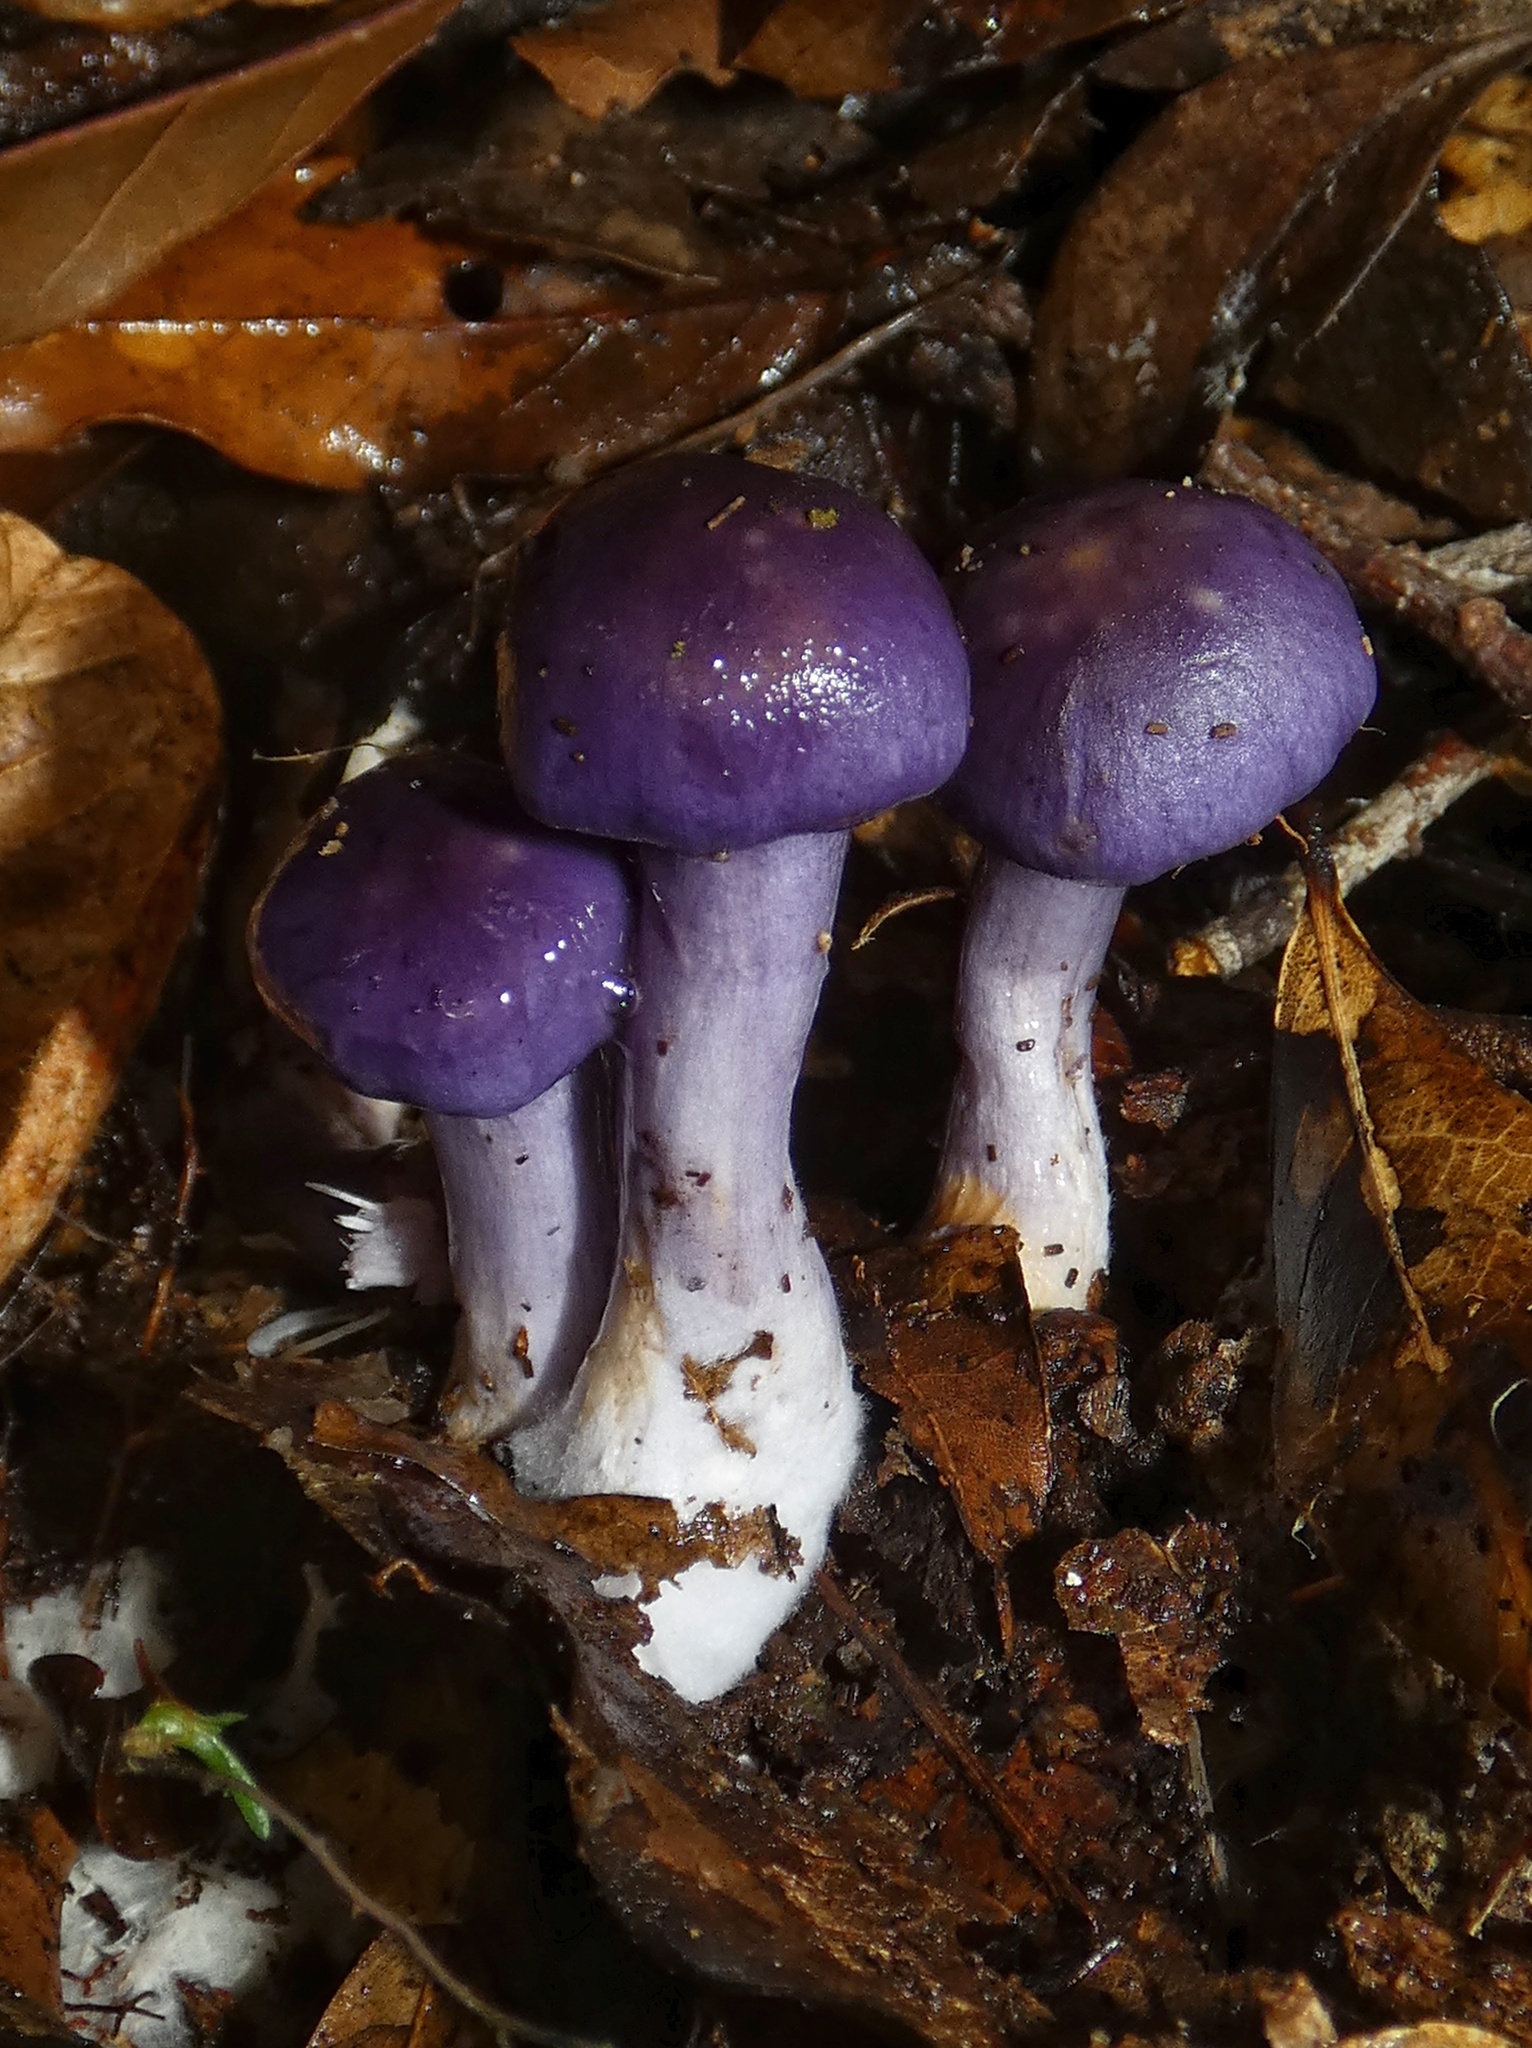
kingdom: Fungi
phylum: Basidiomycota
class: Agaricomycetes
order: Agaricales
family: Cortinariaceae
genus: Cortinarius
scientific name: Cortinarius iodes
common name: Viscid violet cort
